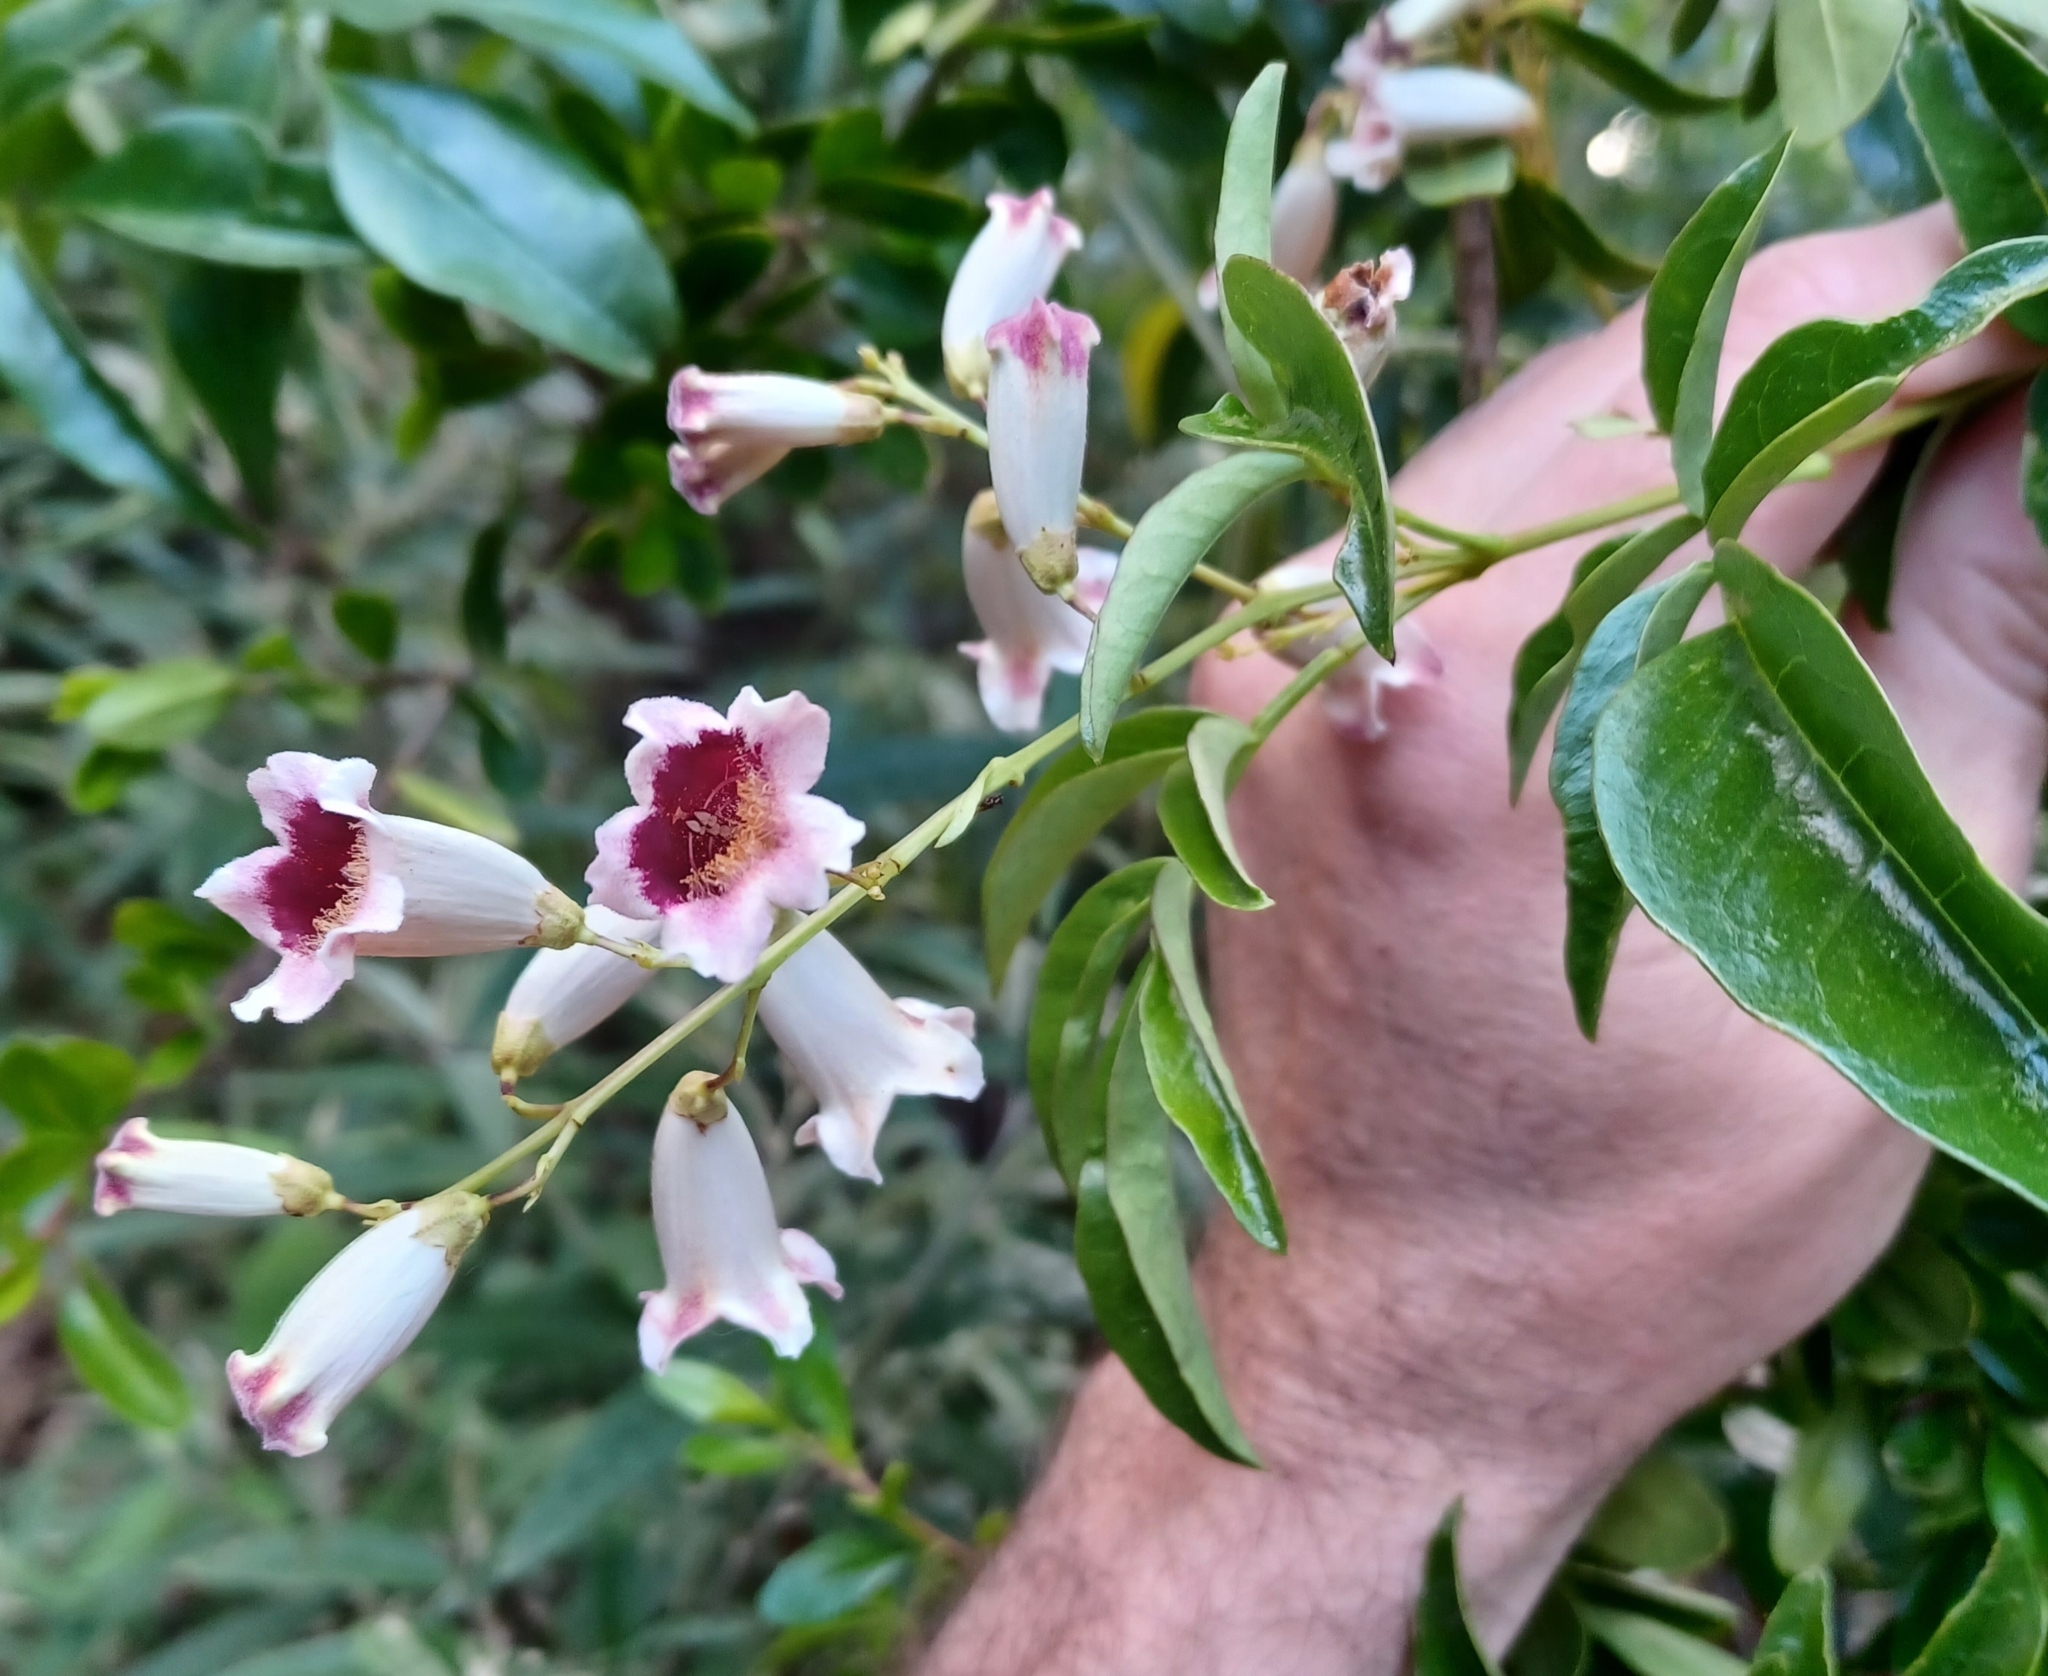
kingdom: Plantae
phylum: Tracheophyta
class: Magnoliopsida
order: Lamiales
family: Bignoniaceae
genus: Pandorea
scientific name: Pandorea pandorana
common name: Wonga-wonga-vine
